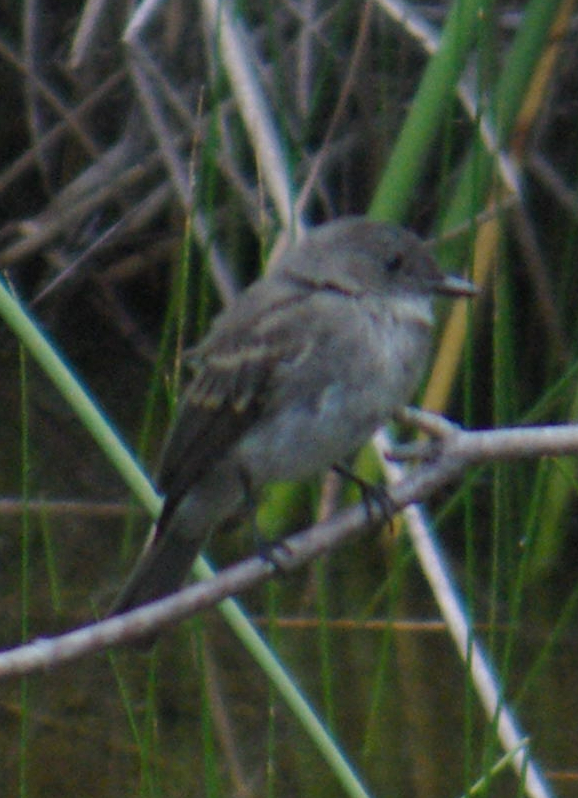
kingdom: Animalia
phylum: Chordata
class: Aves
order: Passeriformes
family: Tyrannidae
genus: Sayornis
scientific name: Sayornis phoebe
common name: Eastern phoebe
